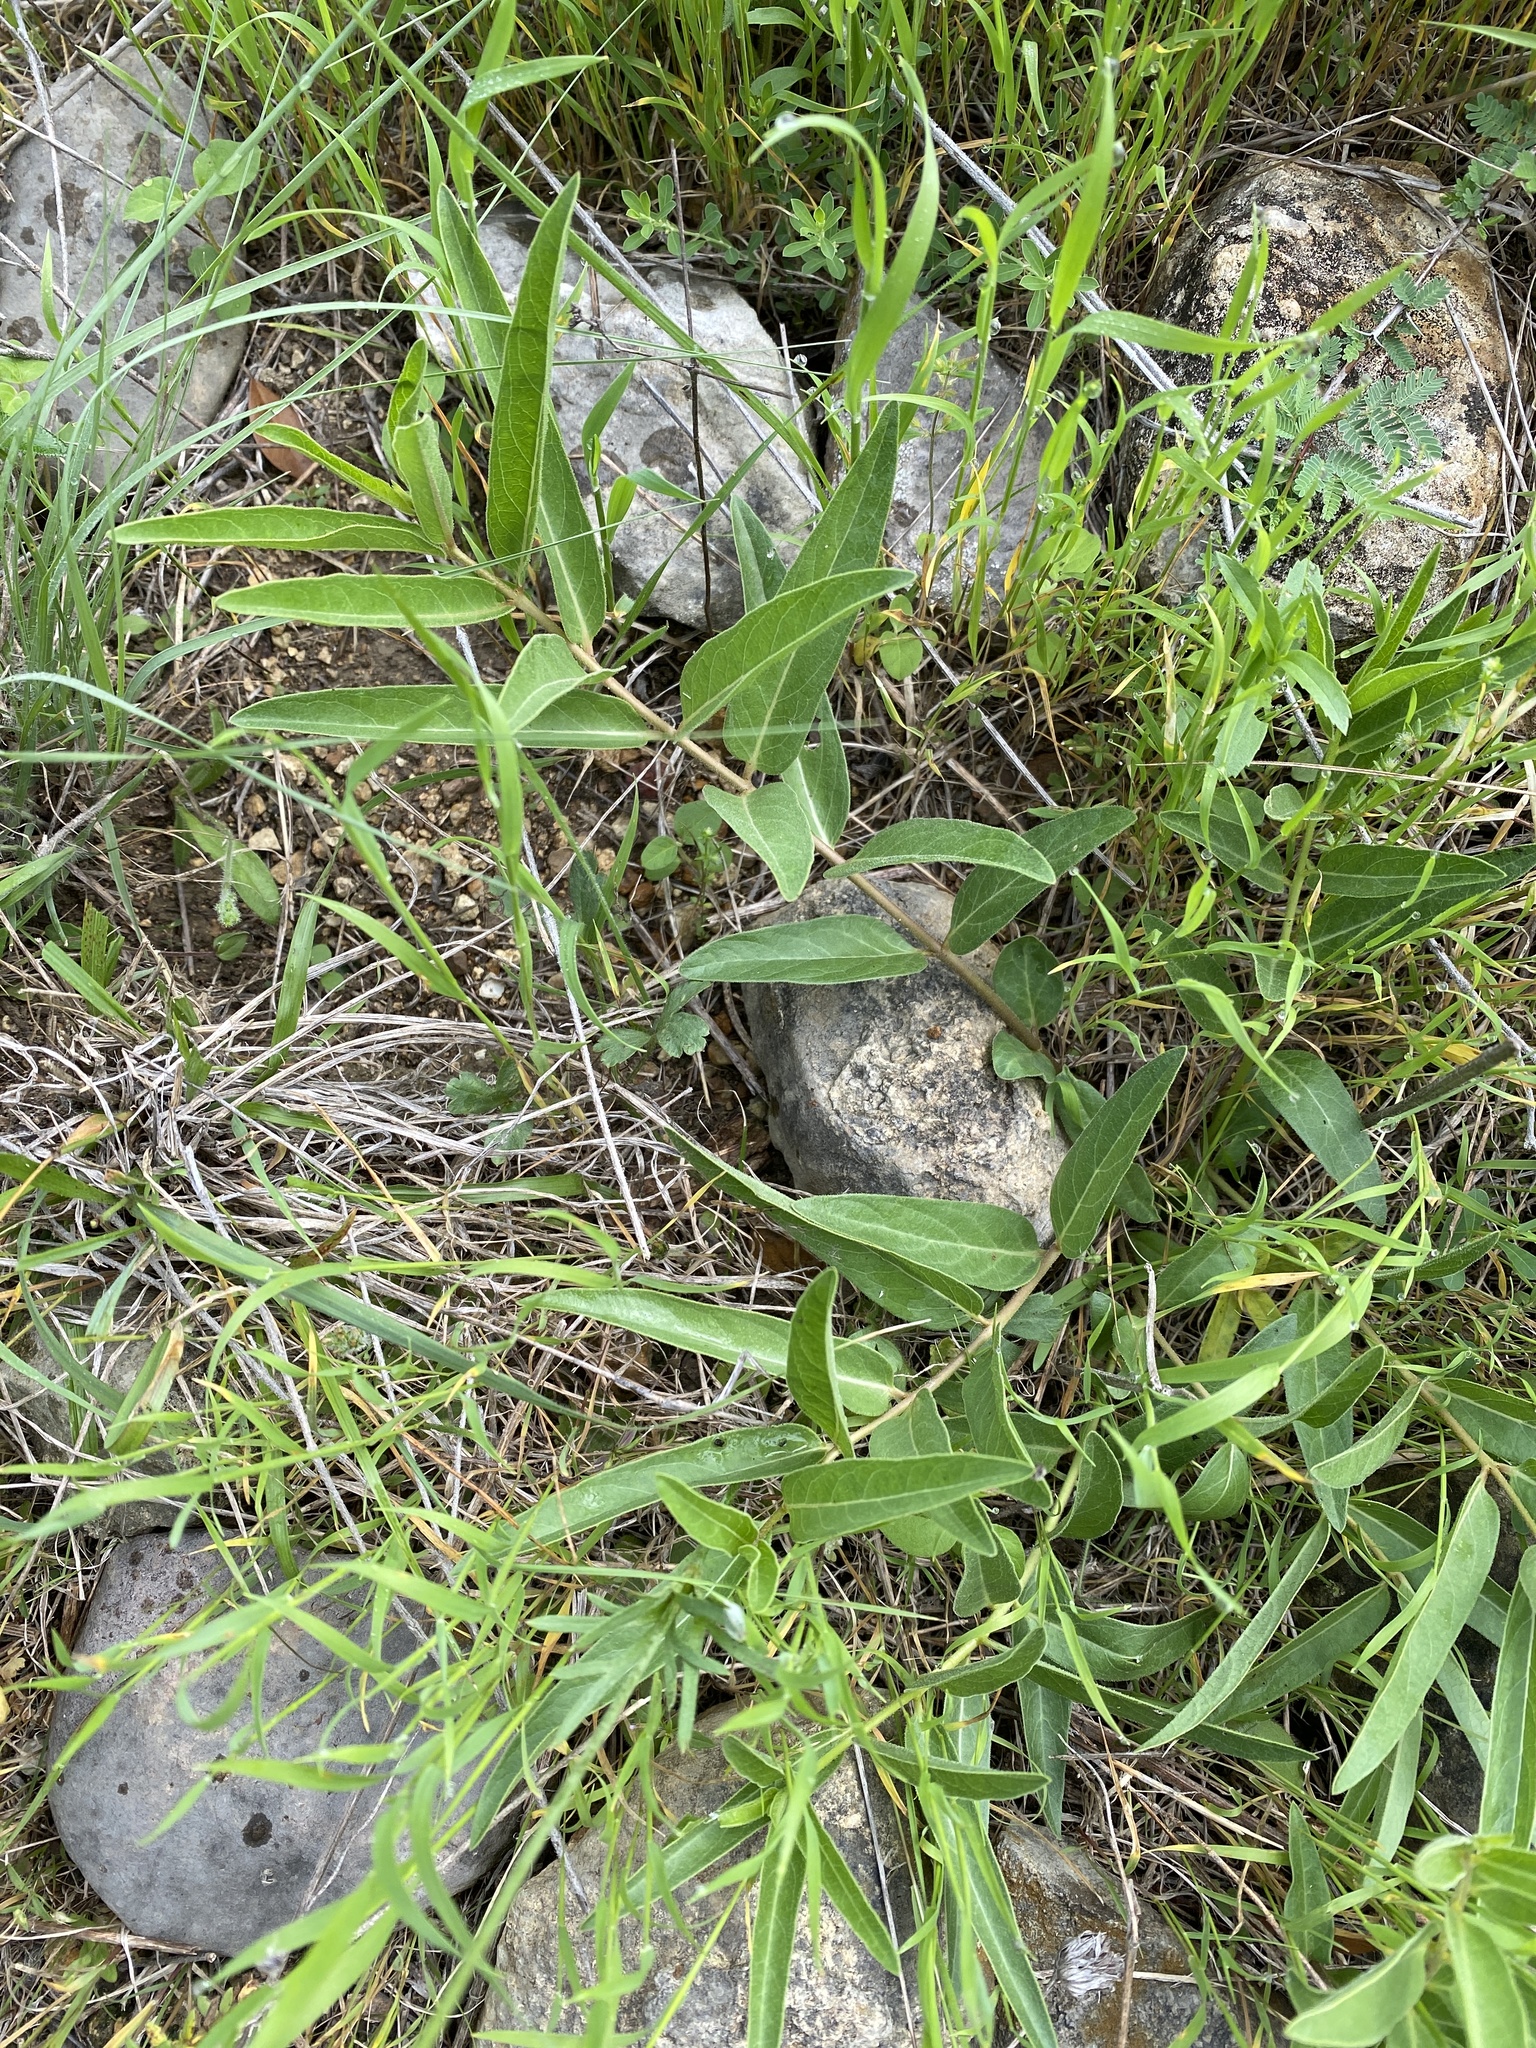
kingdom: Plantae
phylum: Tracheophyta
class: Magnoliopsida
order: Gentianales
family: Apocynaceae
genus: Asclepias
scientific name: Asclepias asperula
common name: Antelope horns
